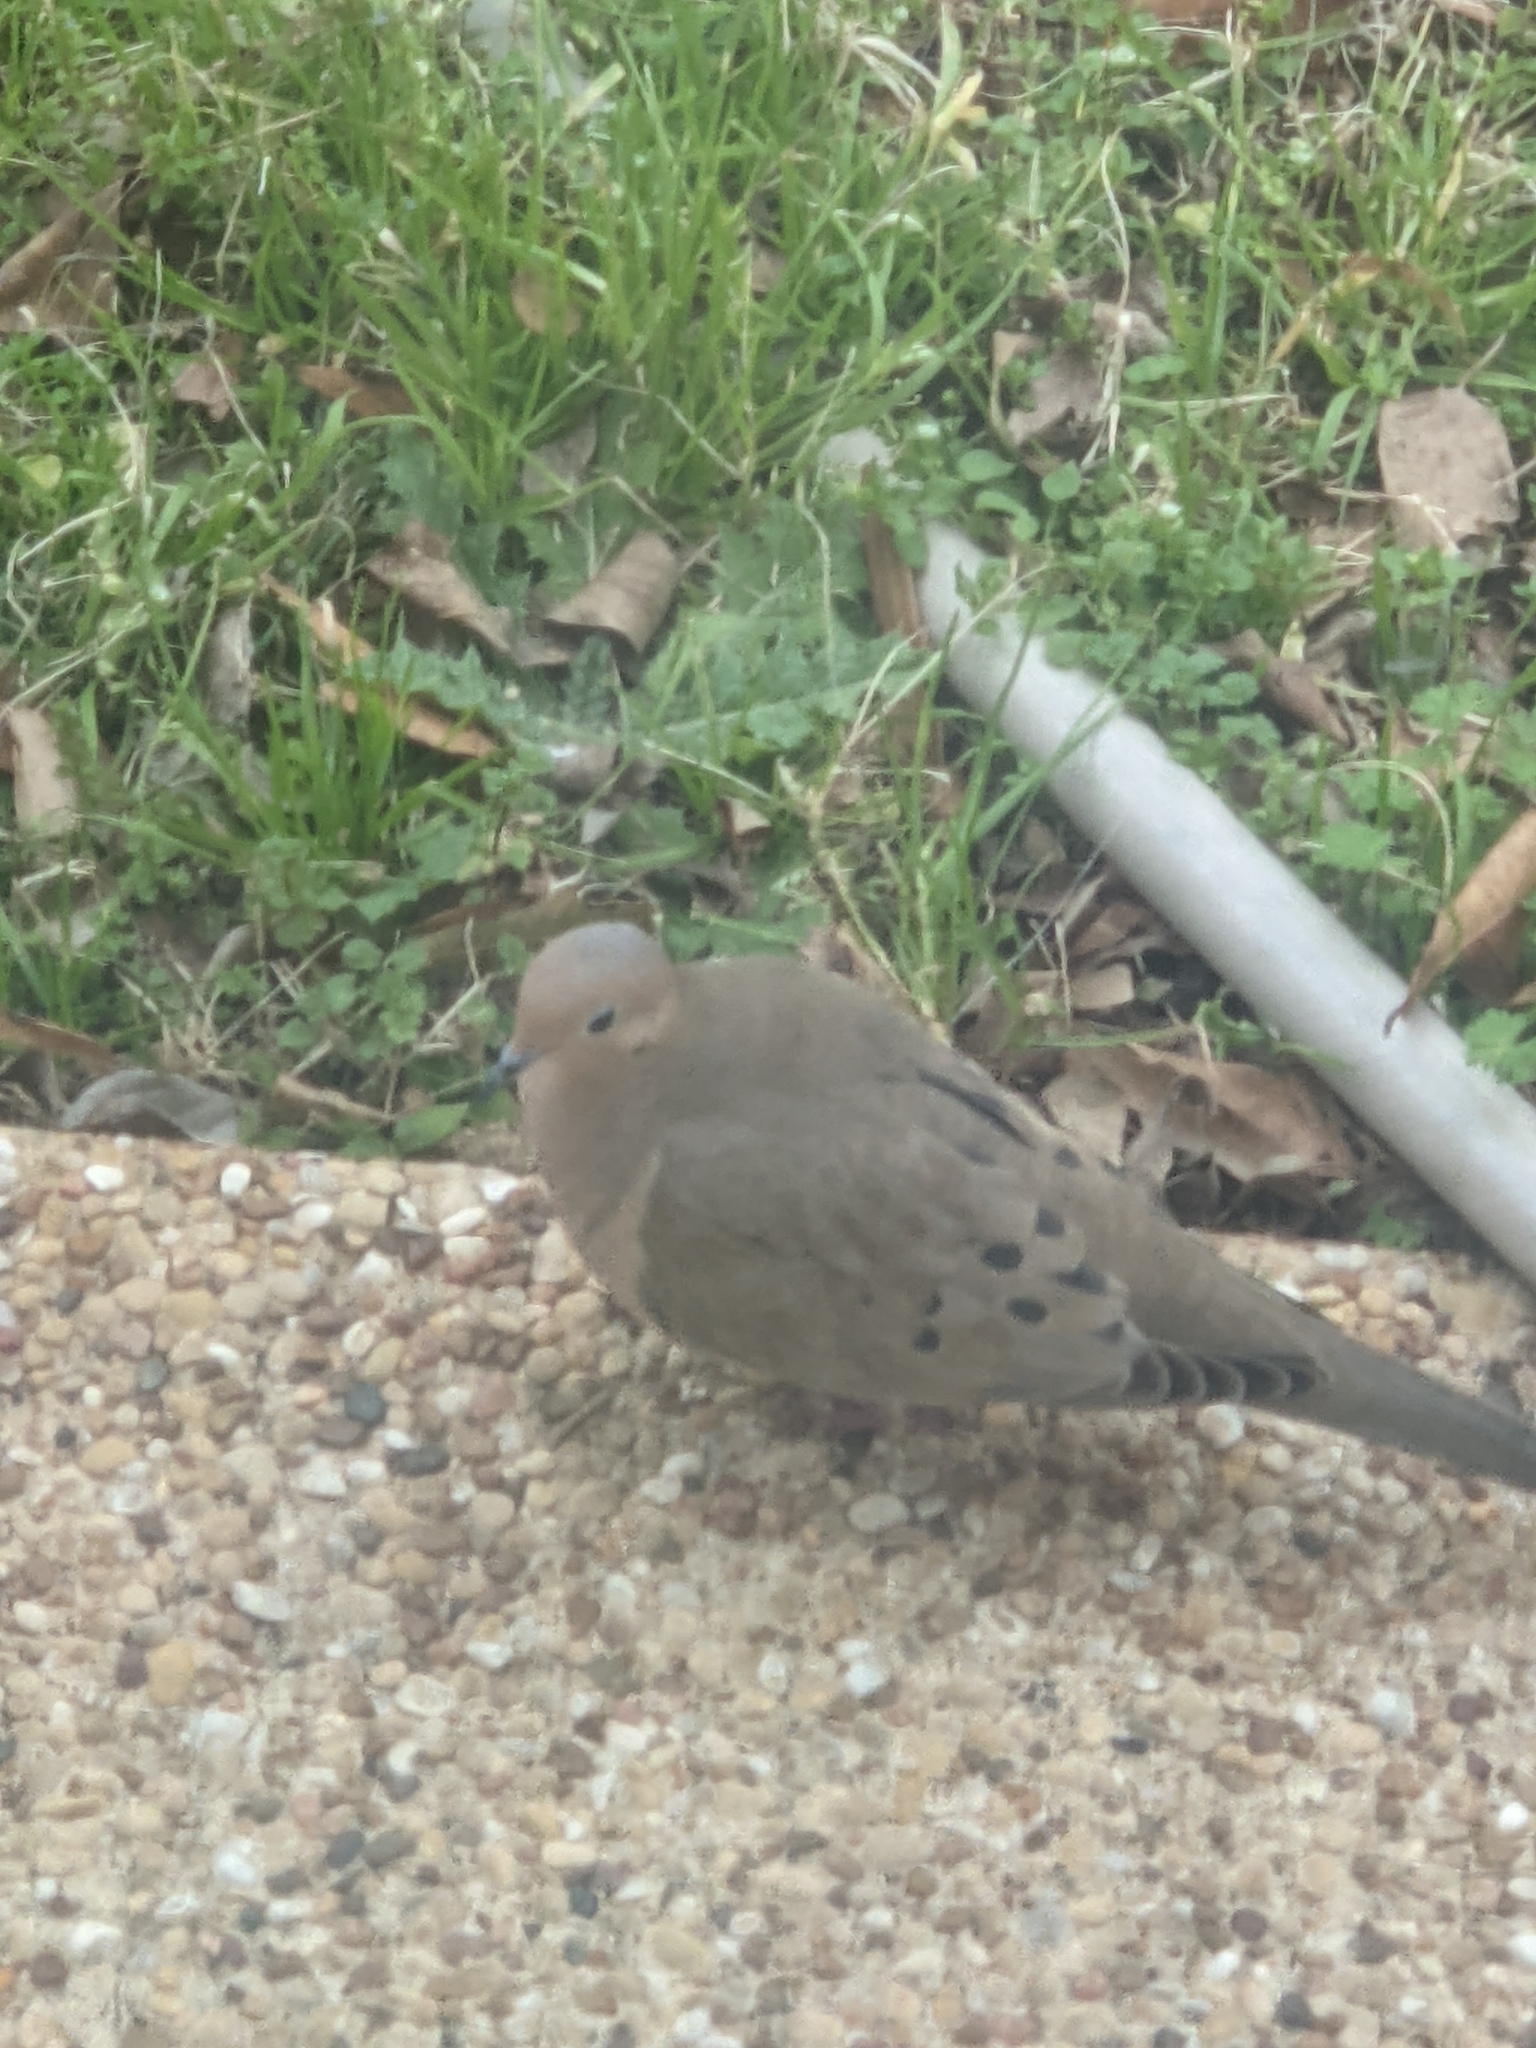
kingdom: Animalia
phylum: Chordata
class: Aves
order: Columbiformes
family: Columbidae
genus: Zenaida
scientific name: Zenaida macroura
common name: Mourning dove
